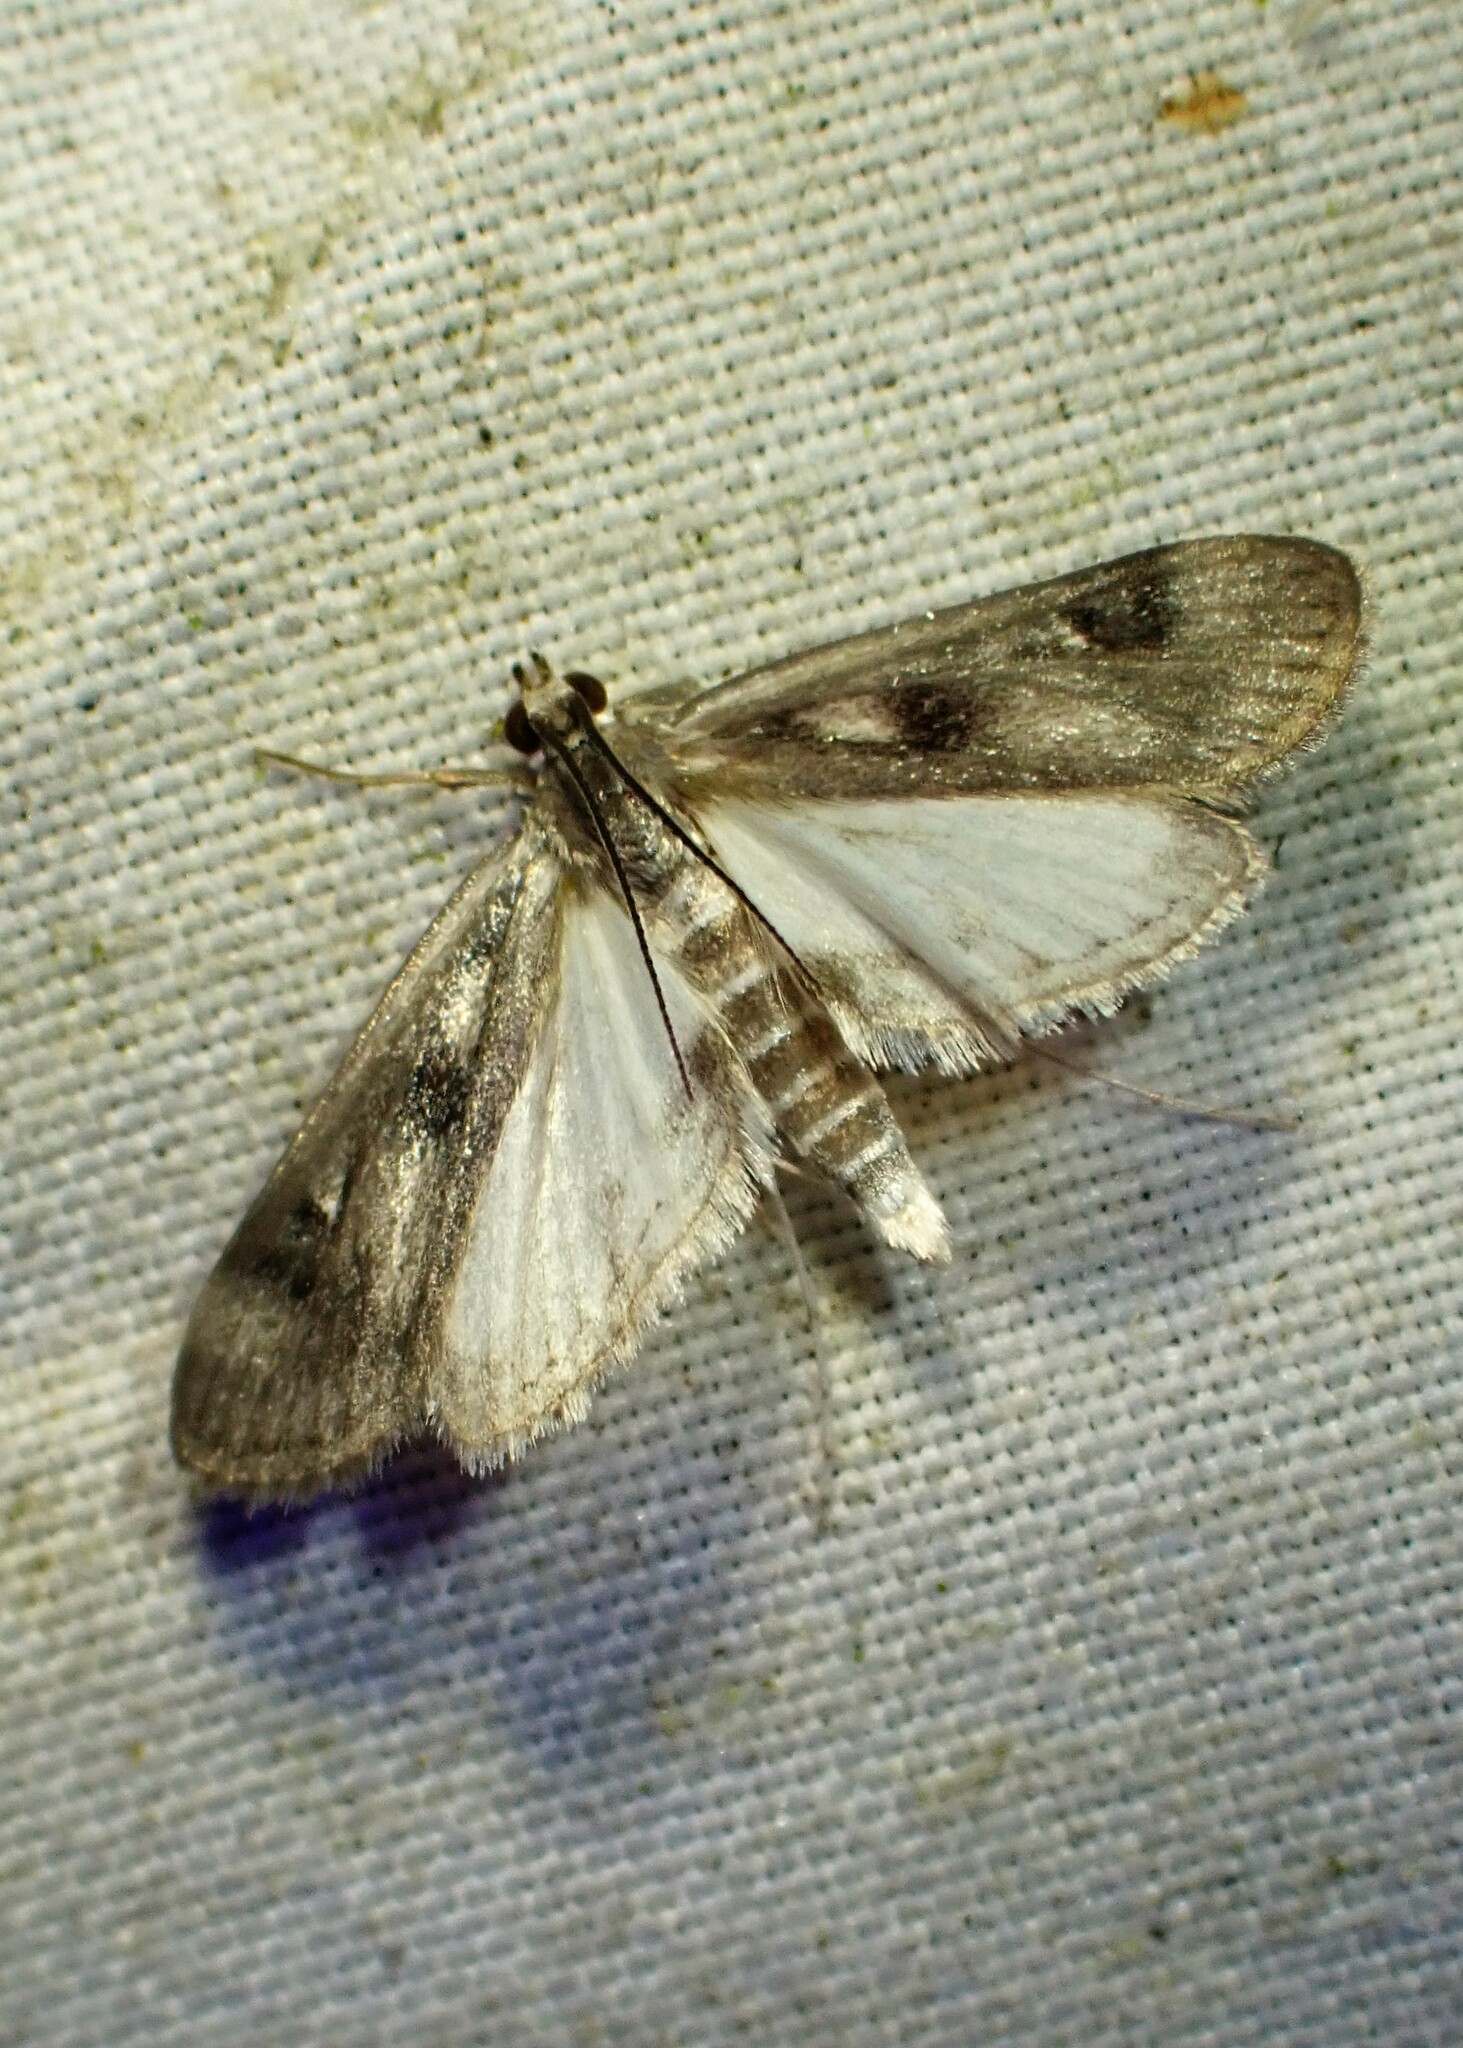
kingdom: Animalia
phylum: Arthropoda
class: Insecta
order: Lepidoptera
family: Crambidae
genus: Parapoynx
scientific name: Parapoynx maculalis
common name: Polymorphic pondweed moth
